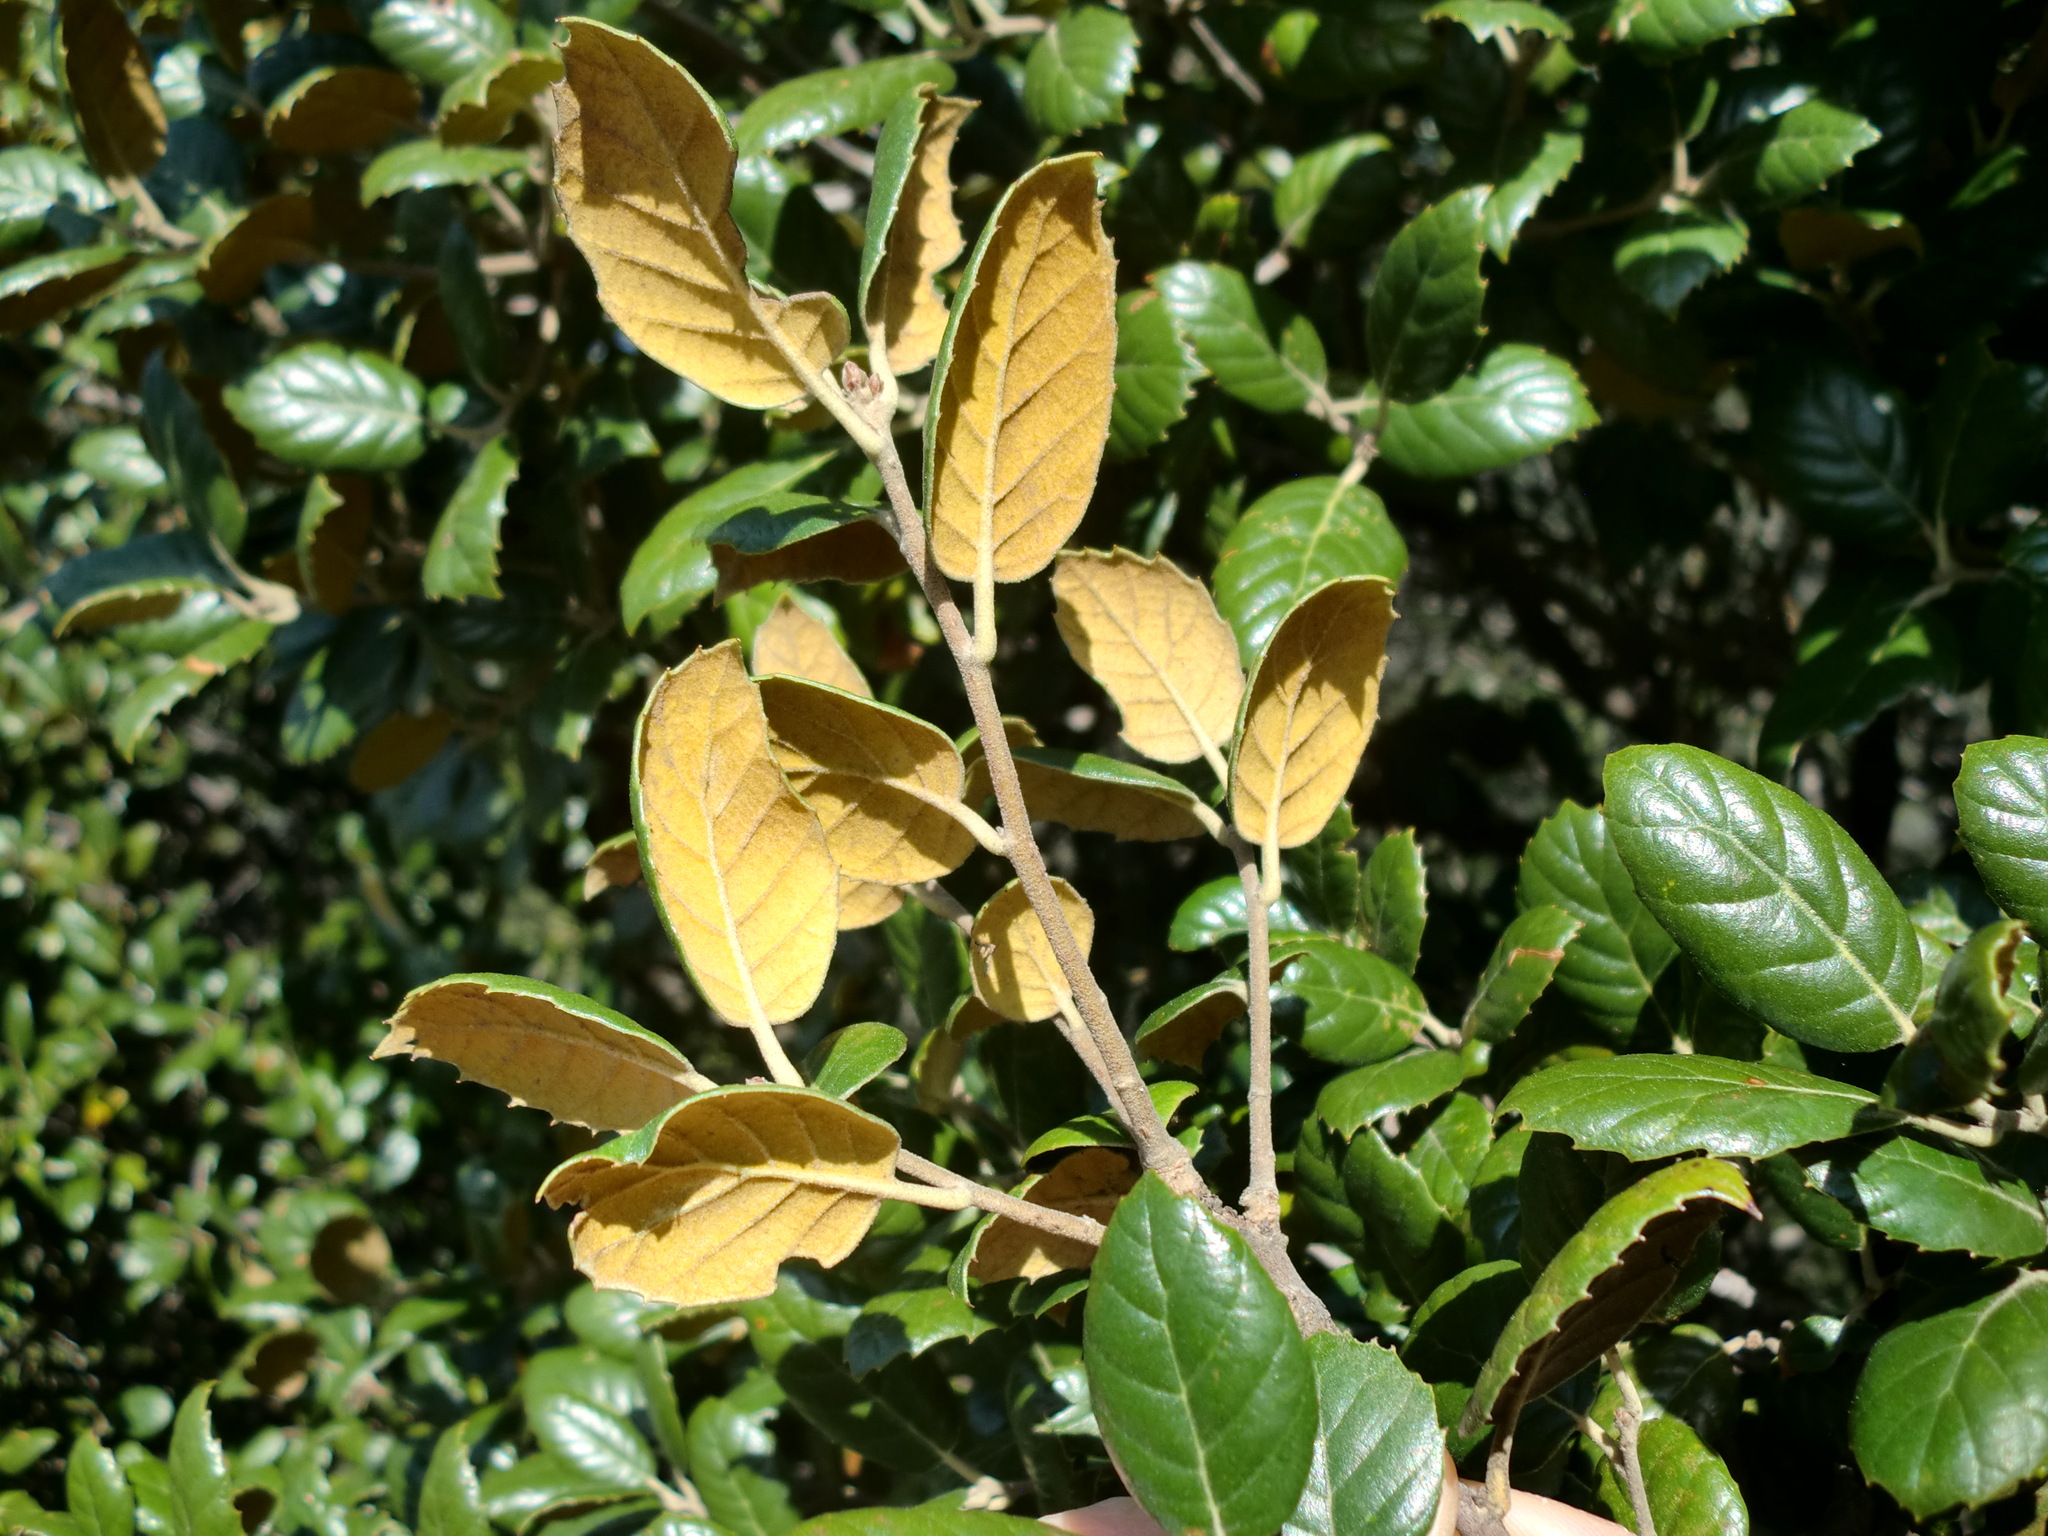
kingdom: Plantae
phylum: Tracheophyta
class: Magnoliopsida
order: Fagales
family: Fagaceae
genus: Quercus
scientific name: Quercus alnifolia
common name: Golden oak
